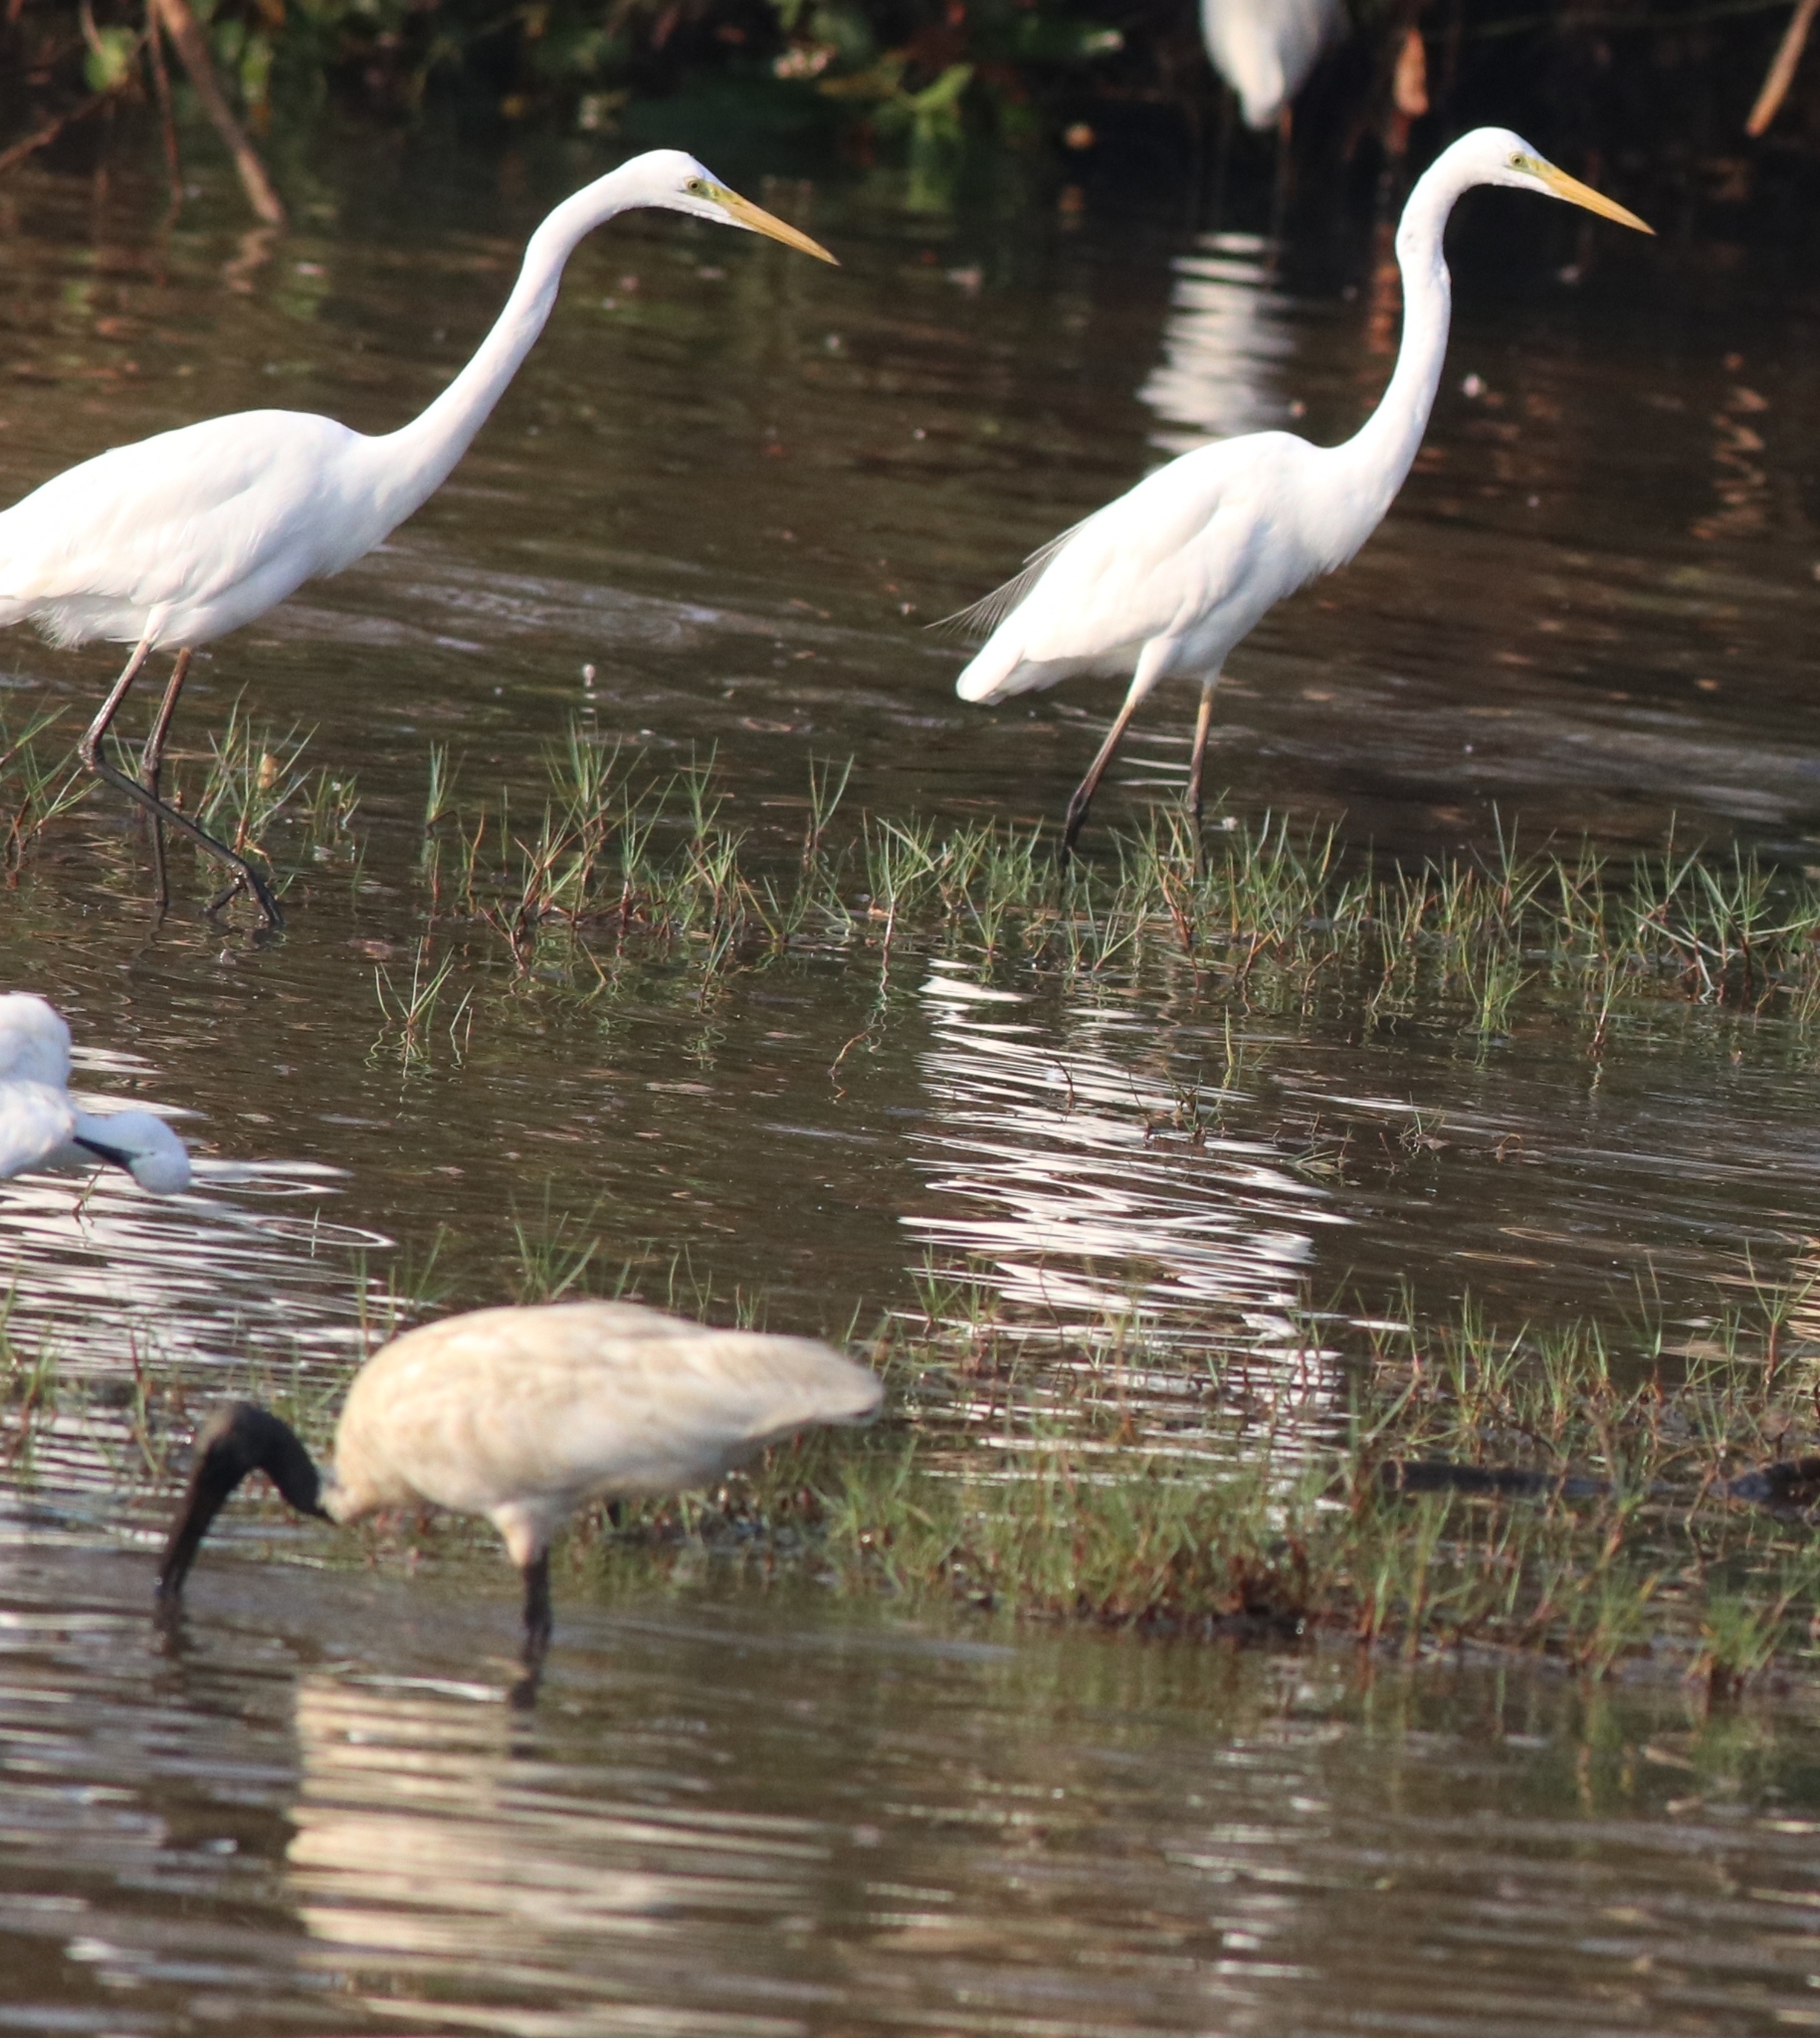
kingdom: Animalia
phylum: Chordata
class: Aves
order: Pelecaniformes
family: Ardeidae
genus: Ardea
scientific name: Ardea alba
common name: Great egret
